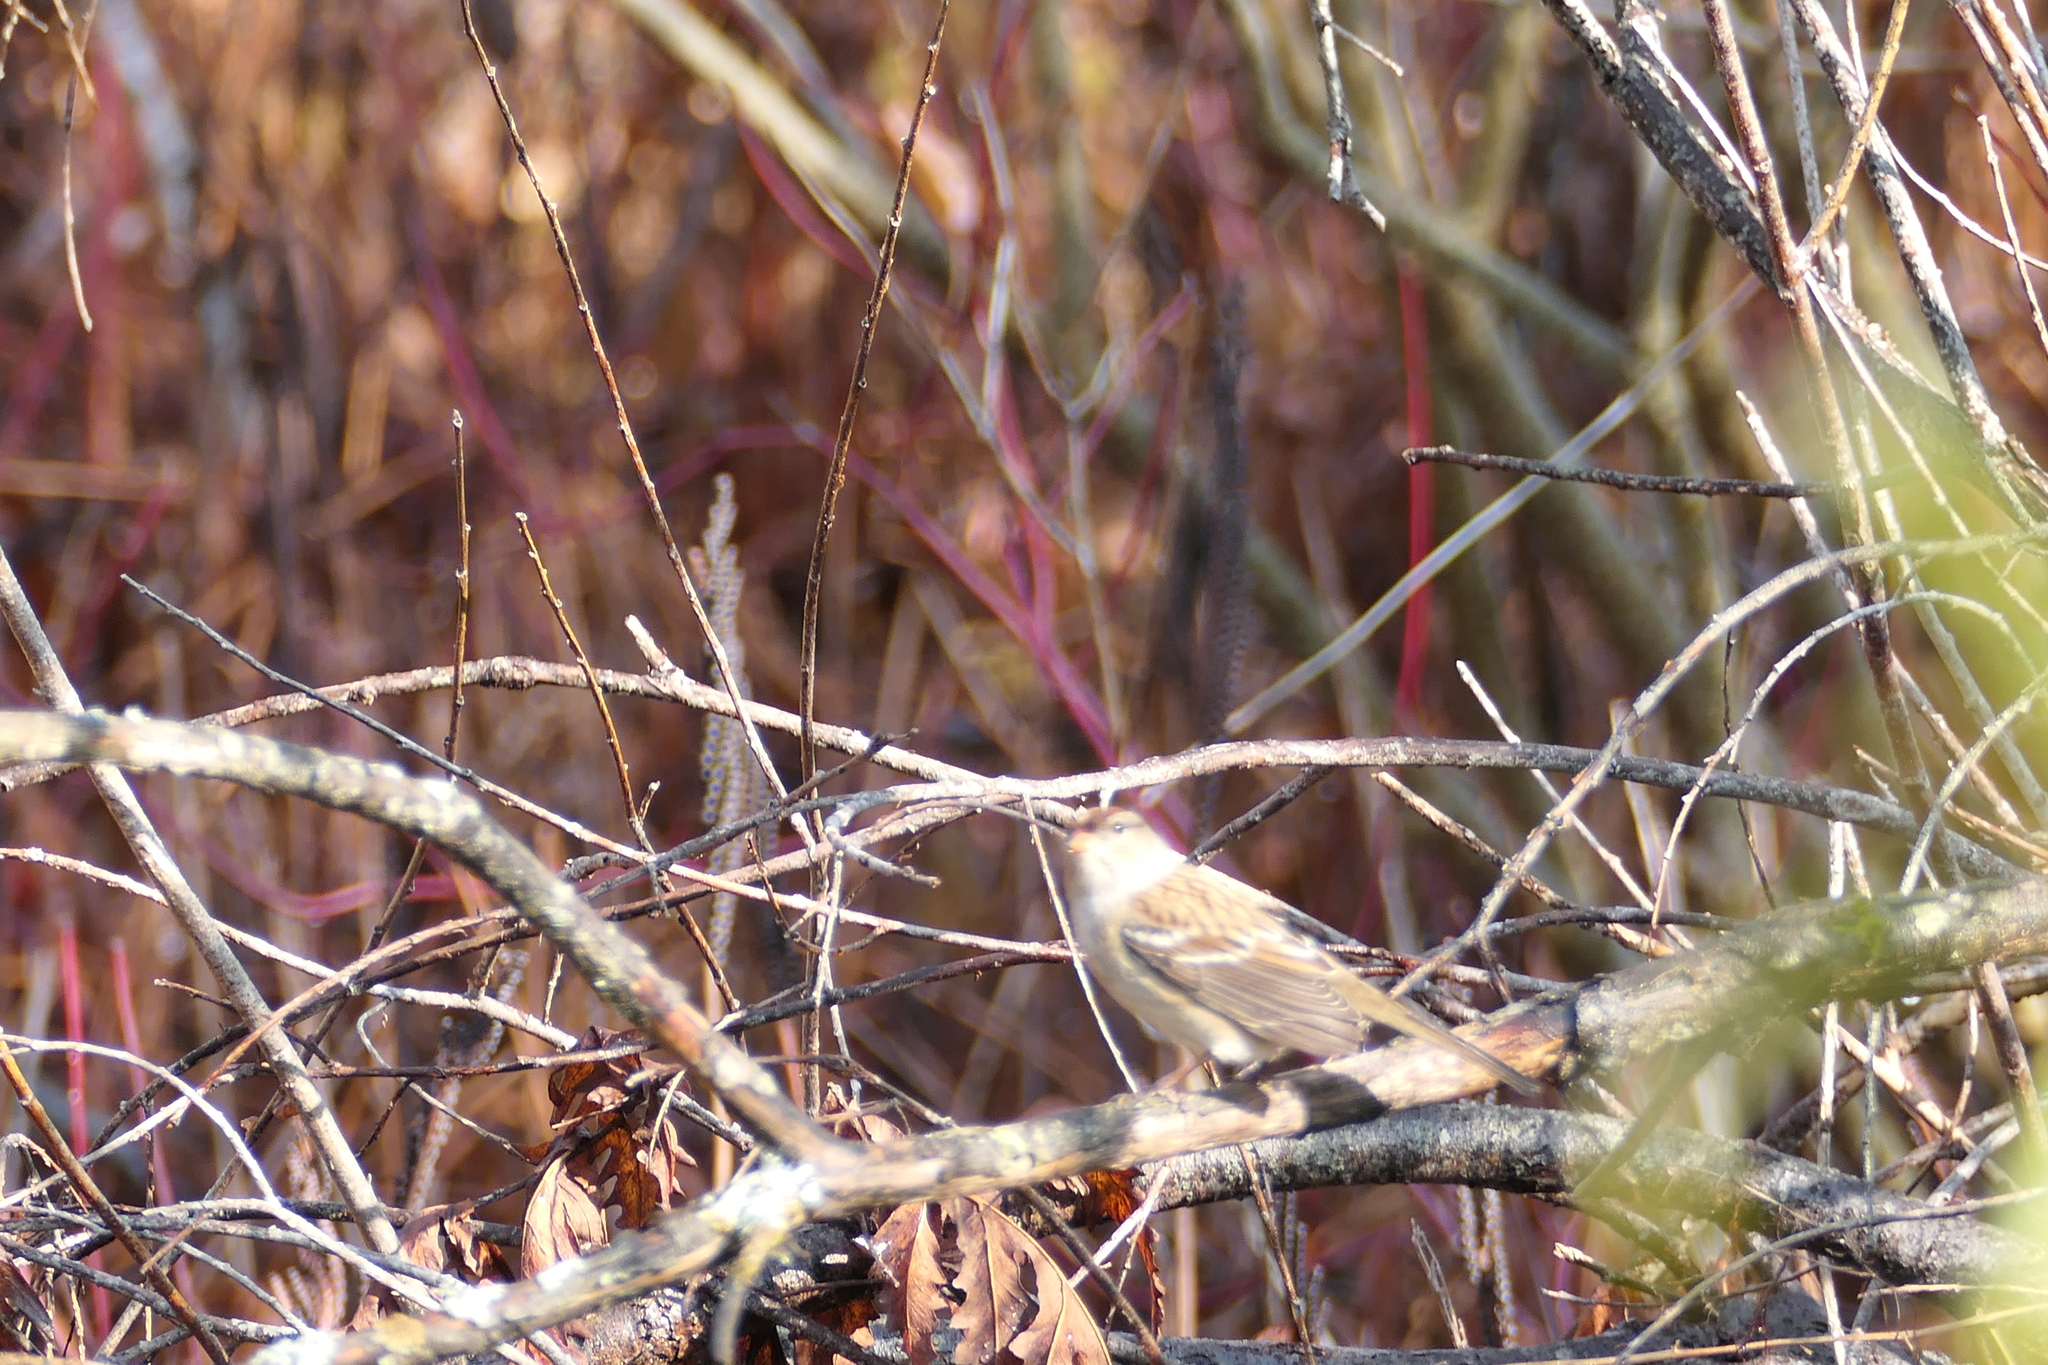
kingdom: Animalia
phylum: Chordata
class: Aves
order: Passeriformes
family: Passerellidae
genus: Zonotrichia
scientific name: Zonotrichia leucophrys
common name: White-crowned sparrow
